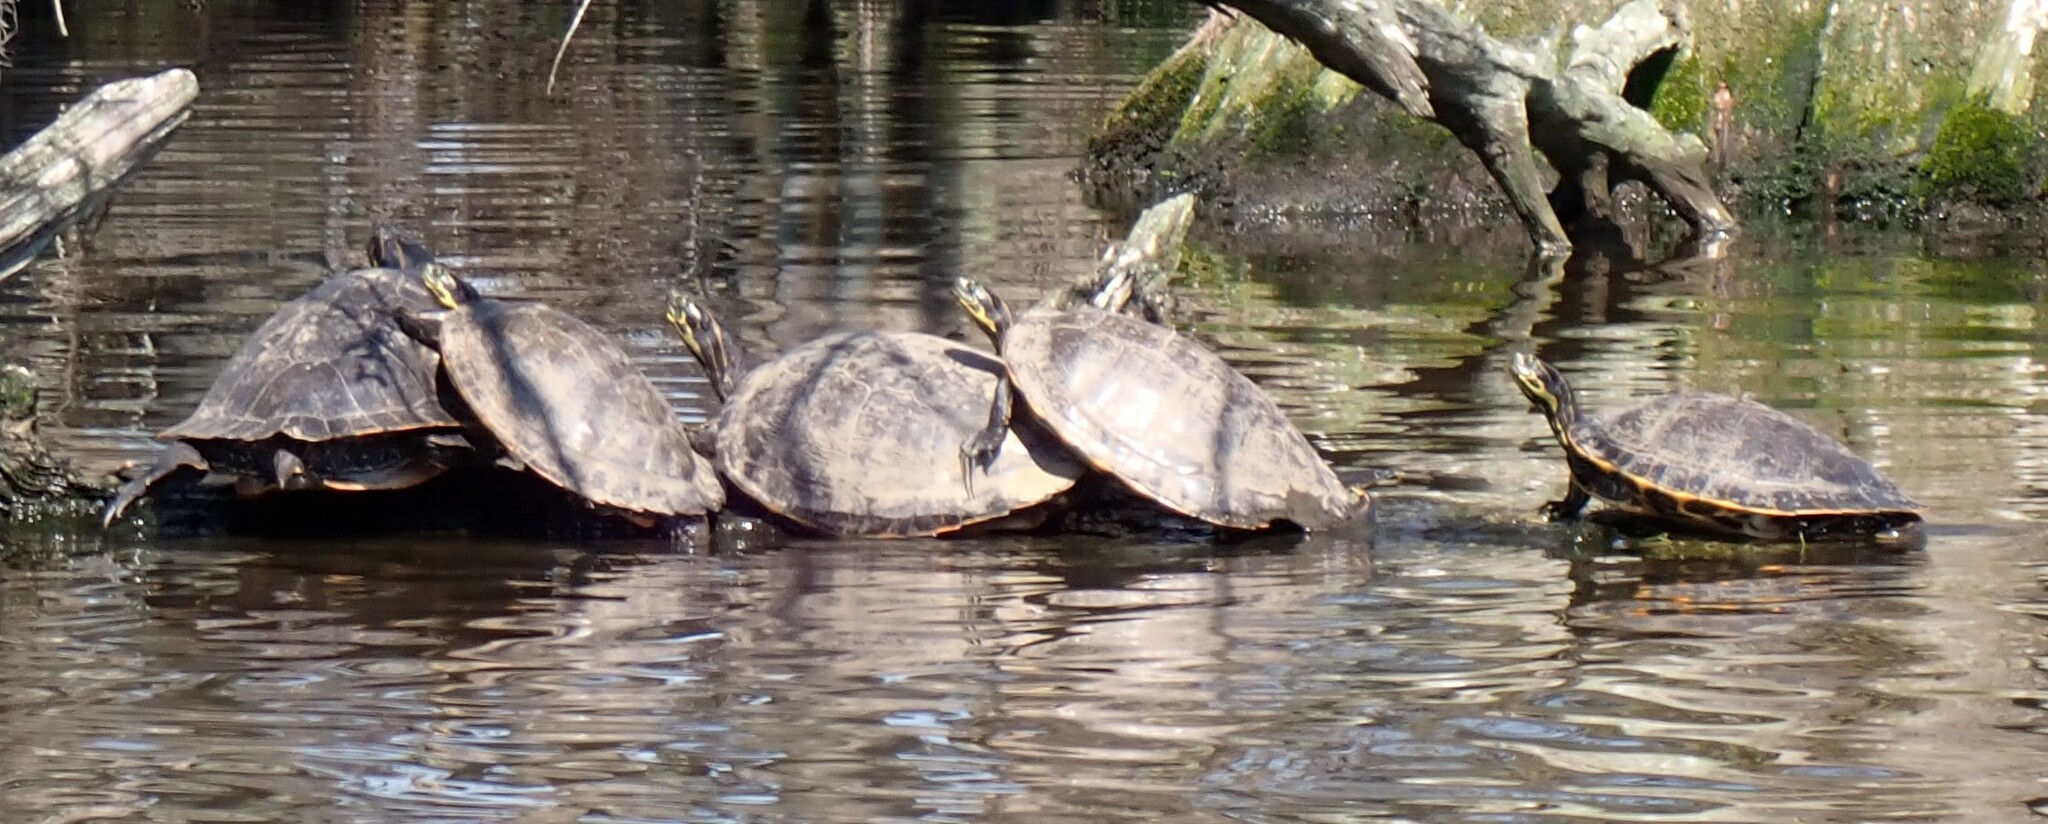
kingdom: Animalia
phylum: Chordata
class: Testudines
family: Emydidae
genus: Pseudemys
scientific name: Pseudemys concinna
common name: Eastern river cooter
